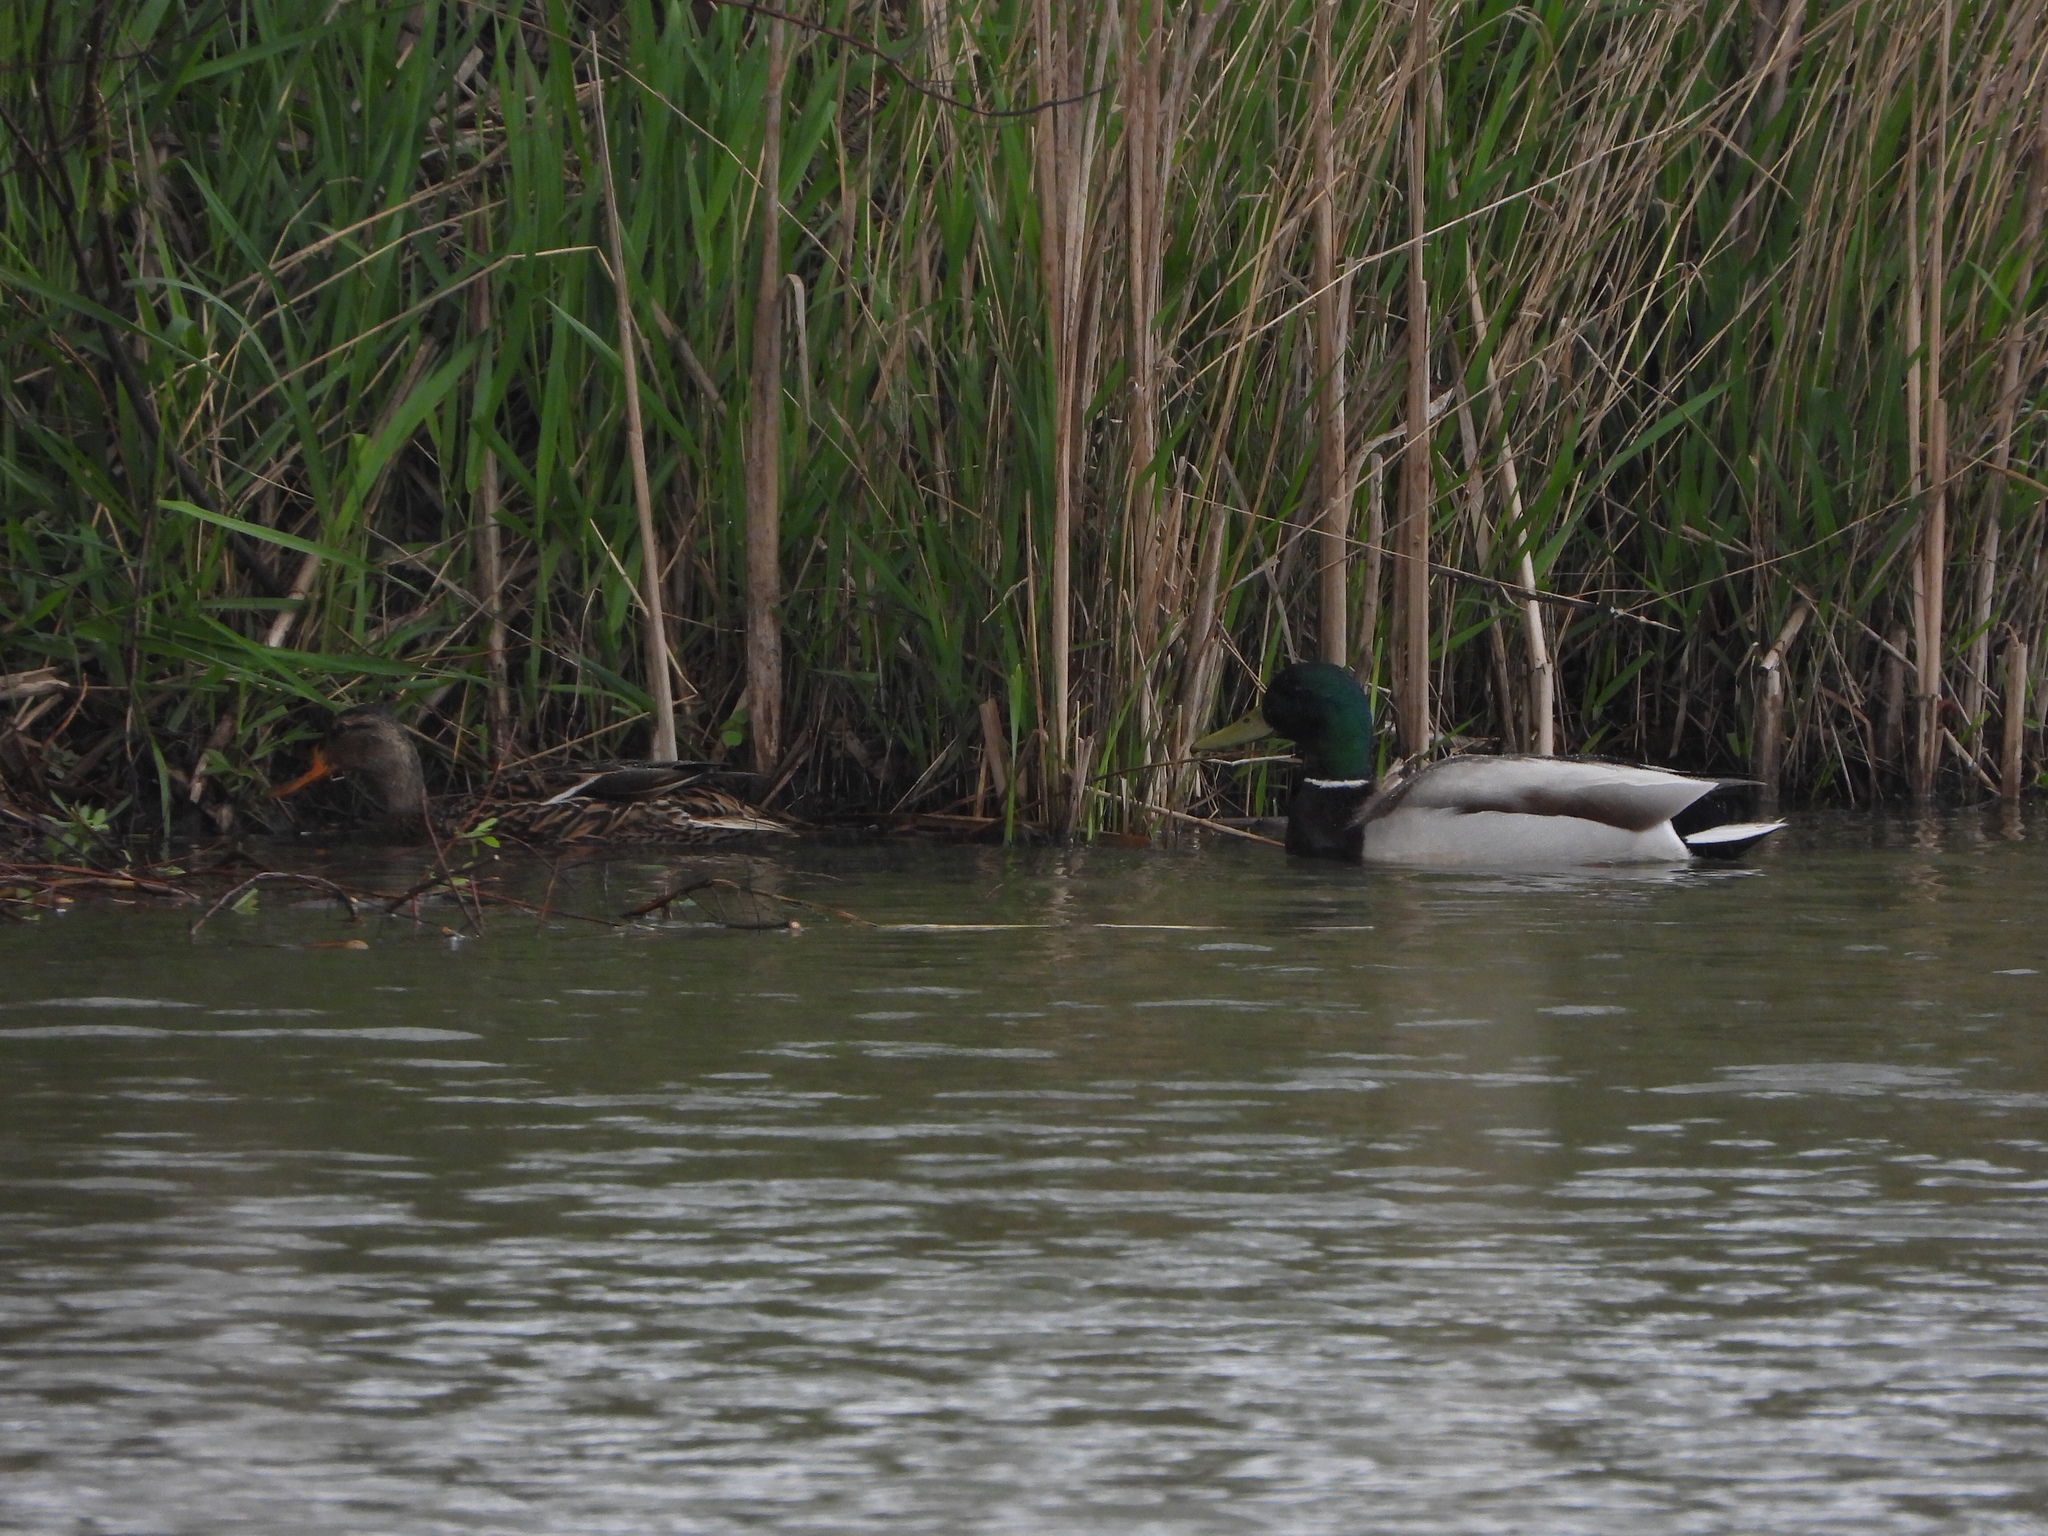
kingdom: Animalia
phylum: Chordata
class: Aves
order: Anseriformes
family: Anatidae
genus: Anas
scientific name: Anas platyrhynchos
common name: Mallard
